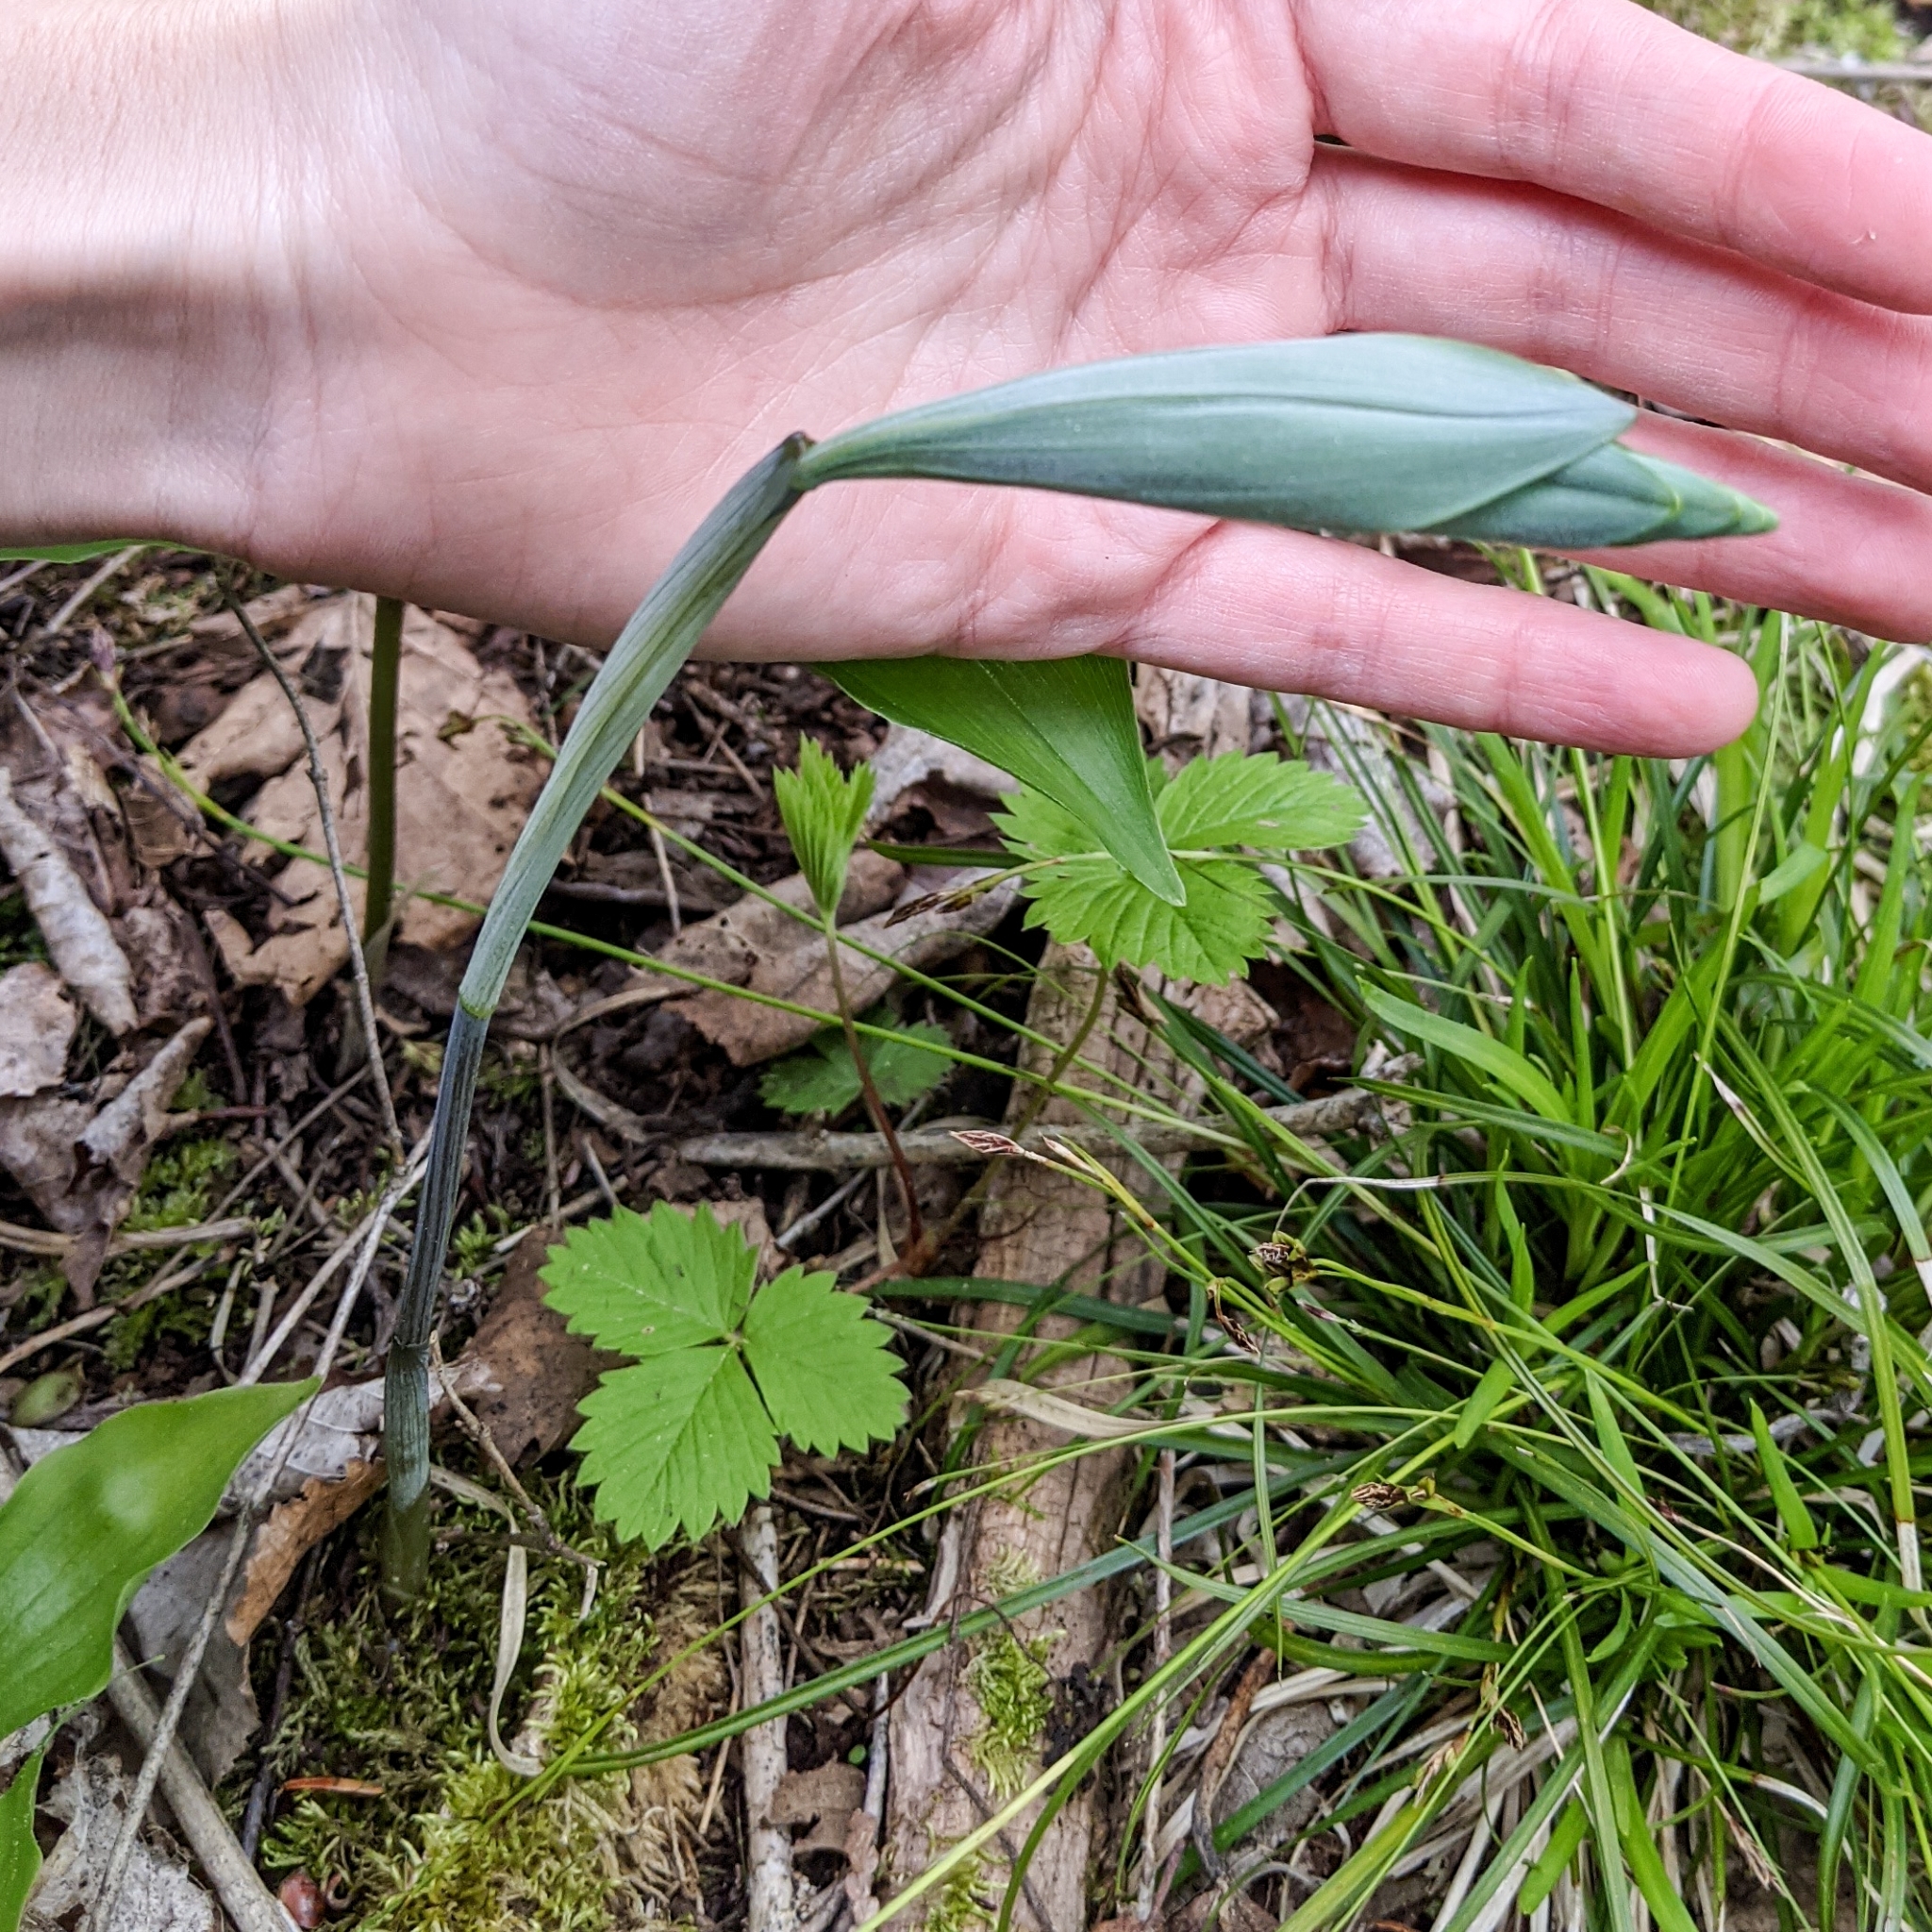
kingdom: Plantae
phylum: Tracheophyta
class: Liliopsida
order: Asparagales
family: Asparagaceae
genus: Maianthemum
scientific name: Maianthemum racemosum
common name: False spikenard
